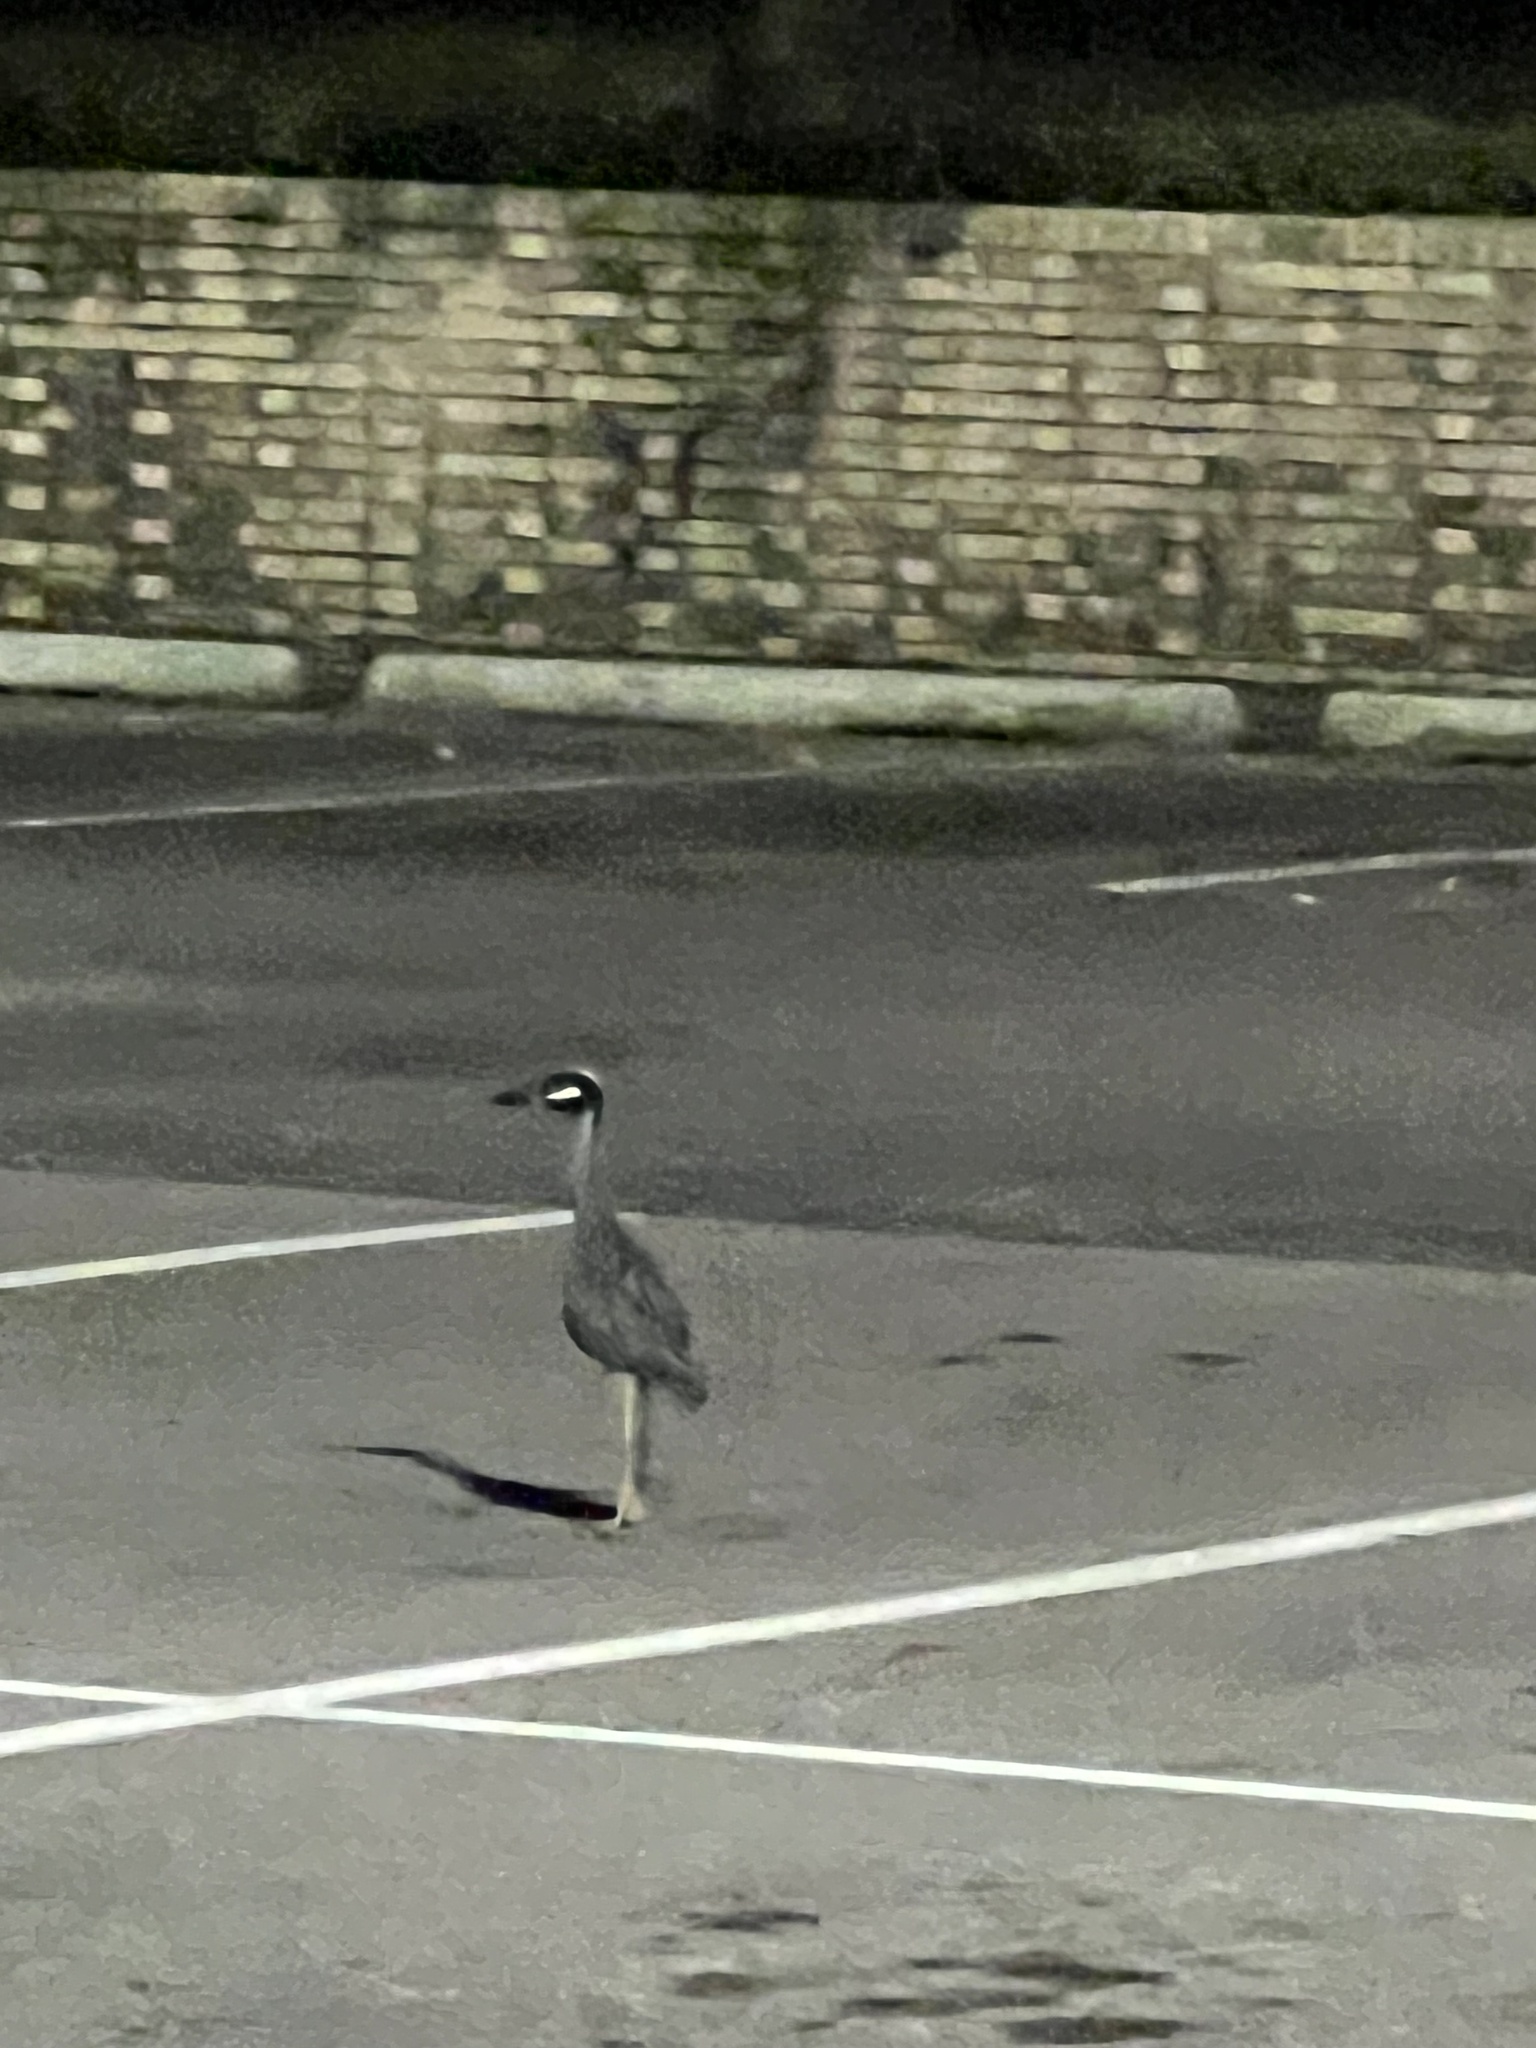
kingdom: Animalia
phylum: Chordata
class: Aves
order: Pelecaniformes
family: Ardeidae
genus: Nyctanassa
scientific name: Nyctanassa violacea
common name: Yellow-crowned night heron
